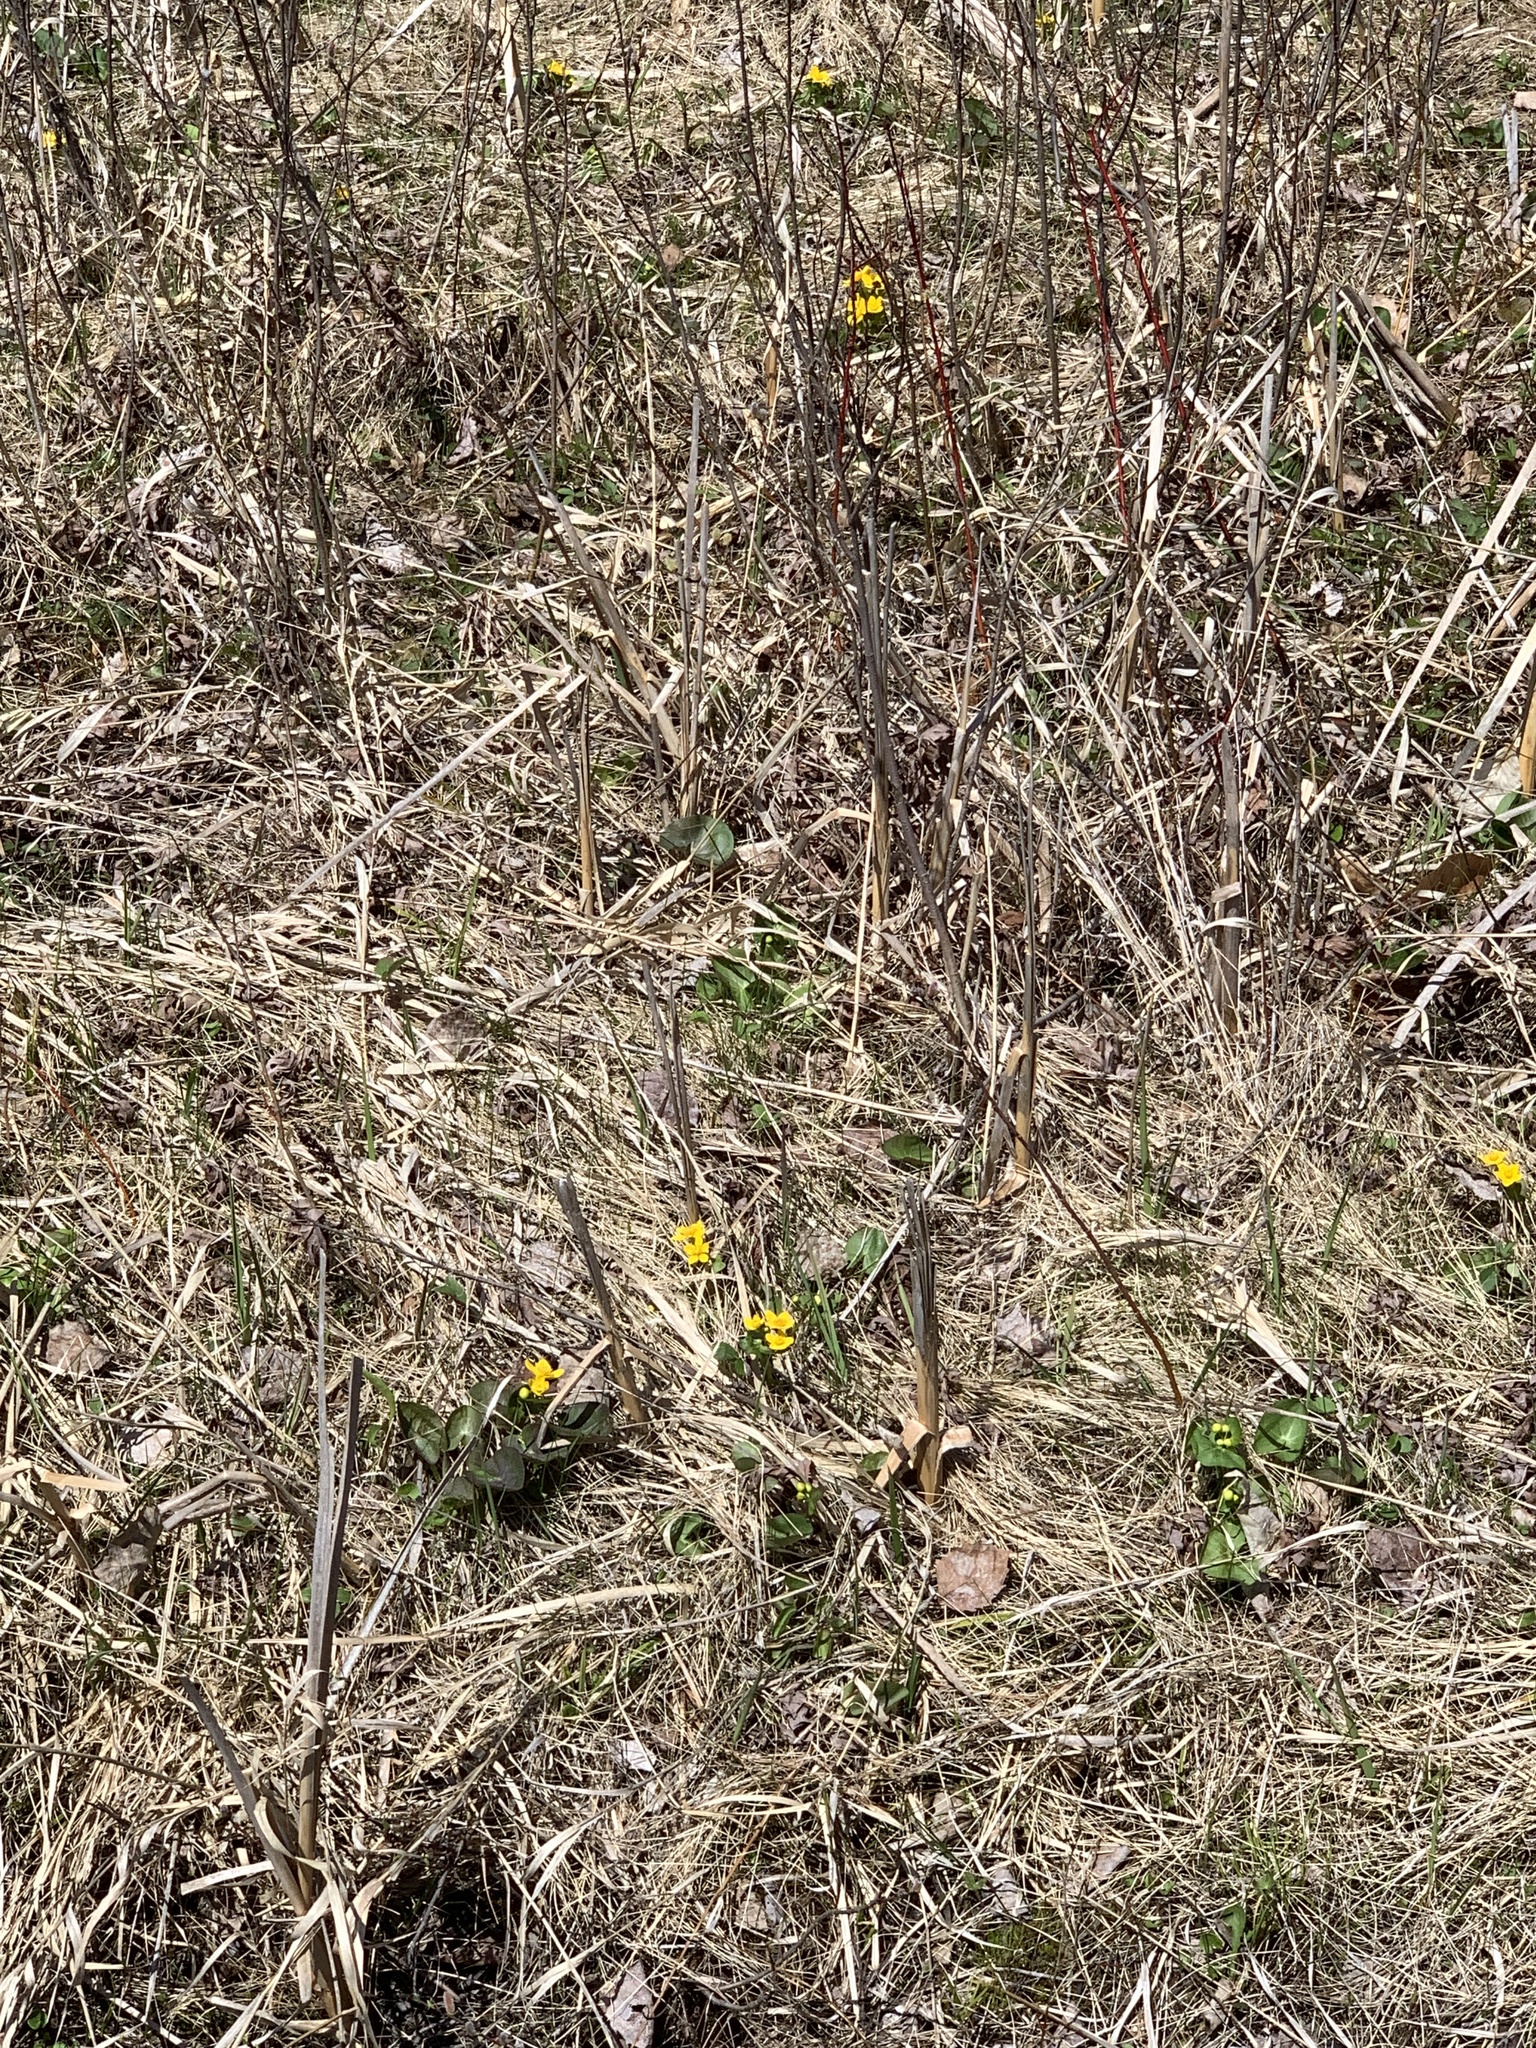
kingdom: Plantae
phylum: Tracheophyta
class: Magnoliopsida
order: Ranunculales
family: Ranunculaceae
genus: Caltha
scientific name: Caltha palustris
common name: Marsh marigold
